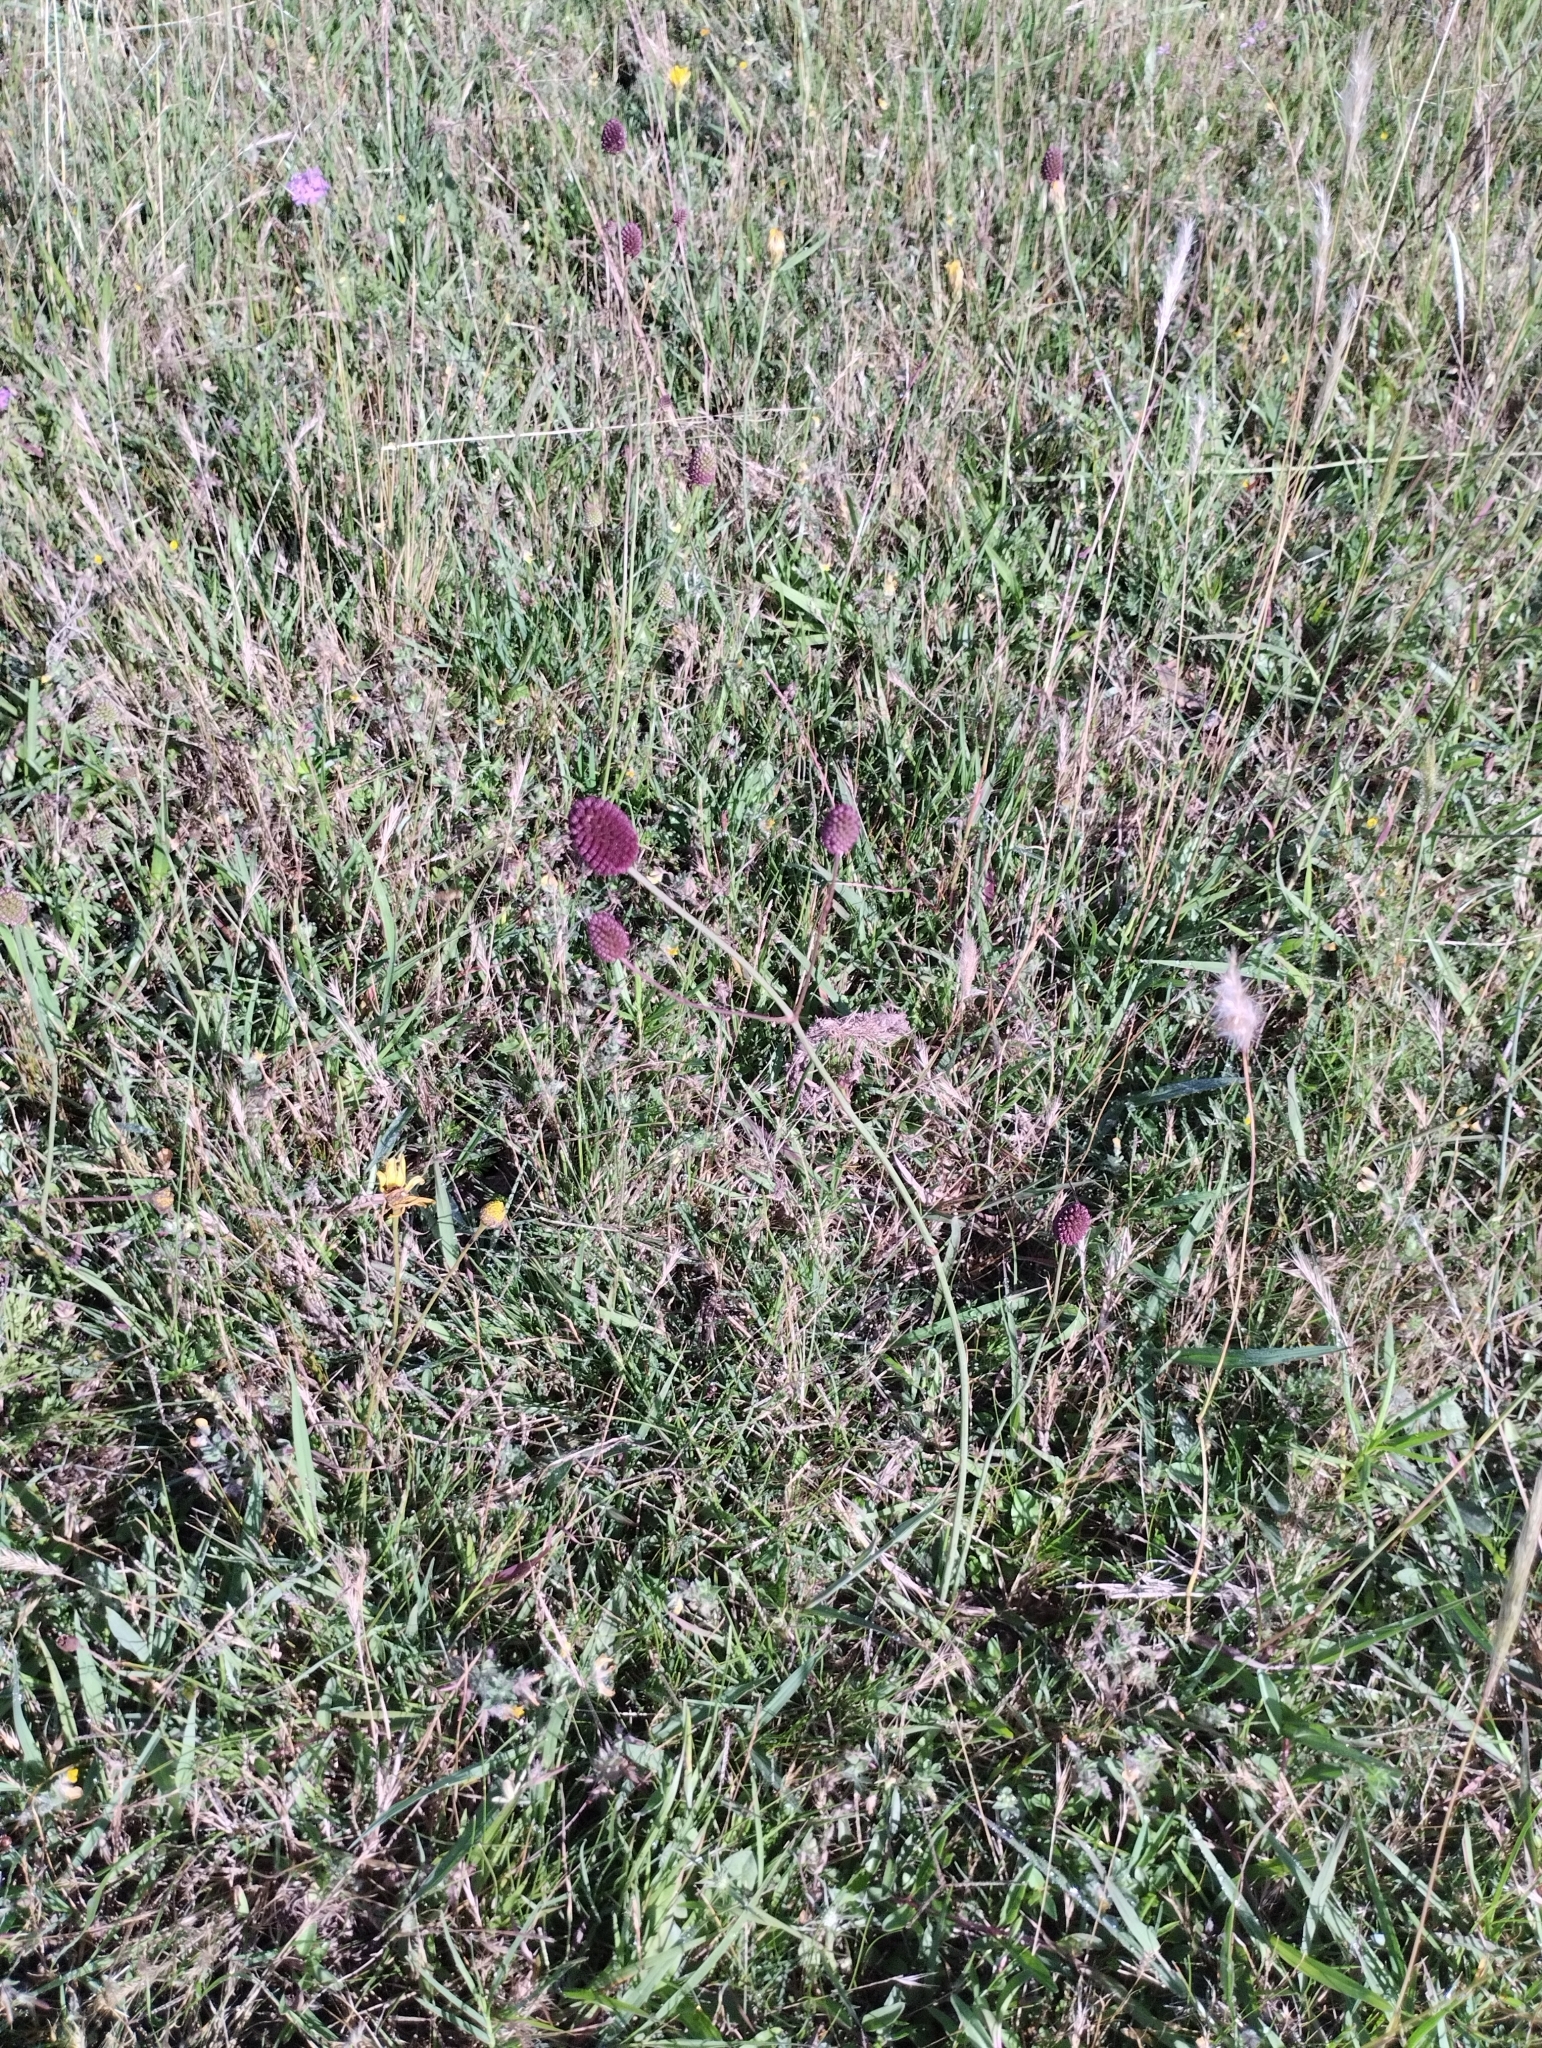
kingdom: Plantae
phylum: Tracheophyta
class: Magnoliopsida
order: Apiales
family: Apiaceae
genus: Eryngium
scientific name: Eryngium sanguisorba
